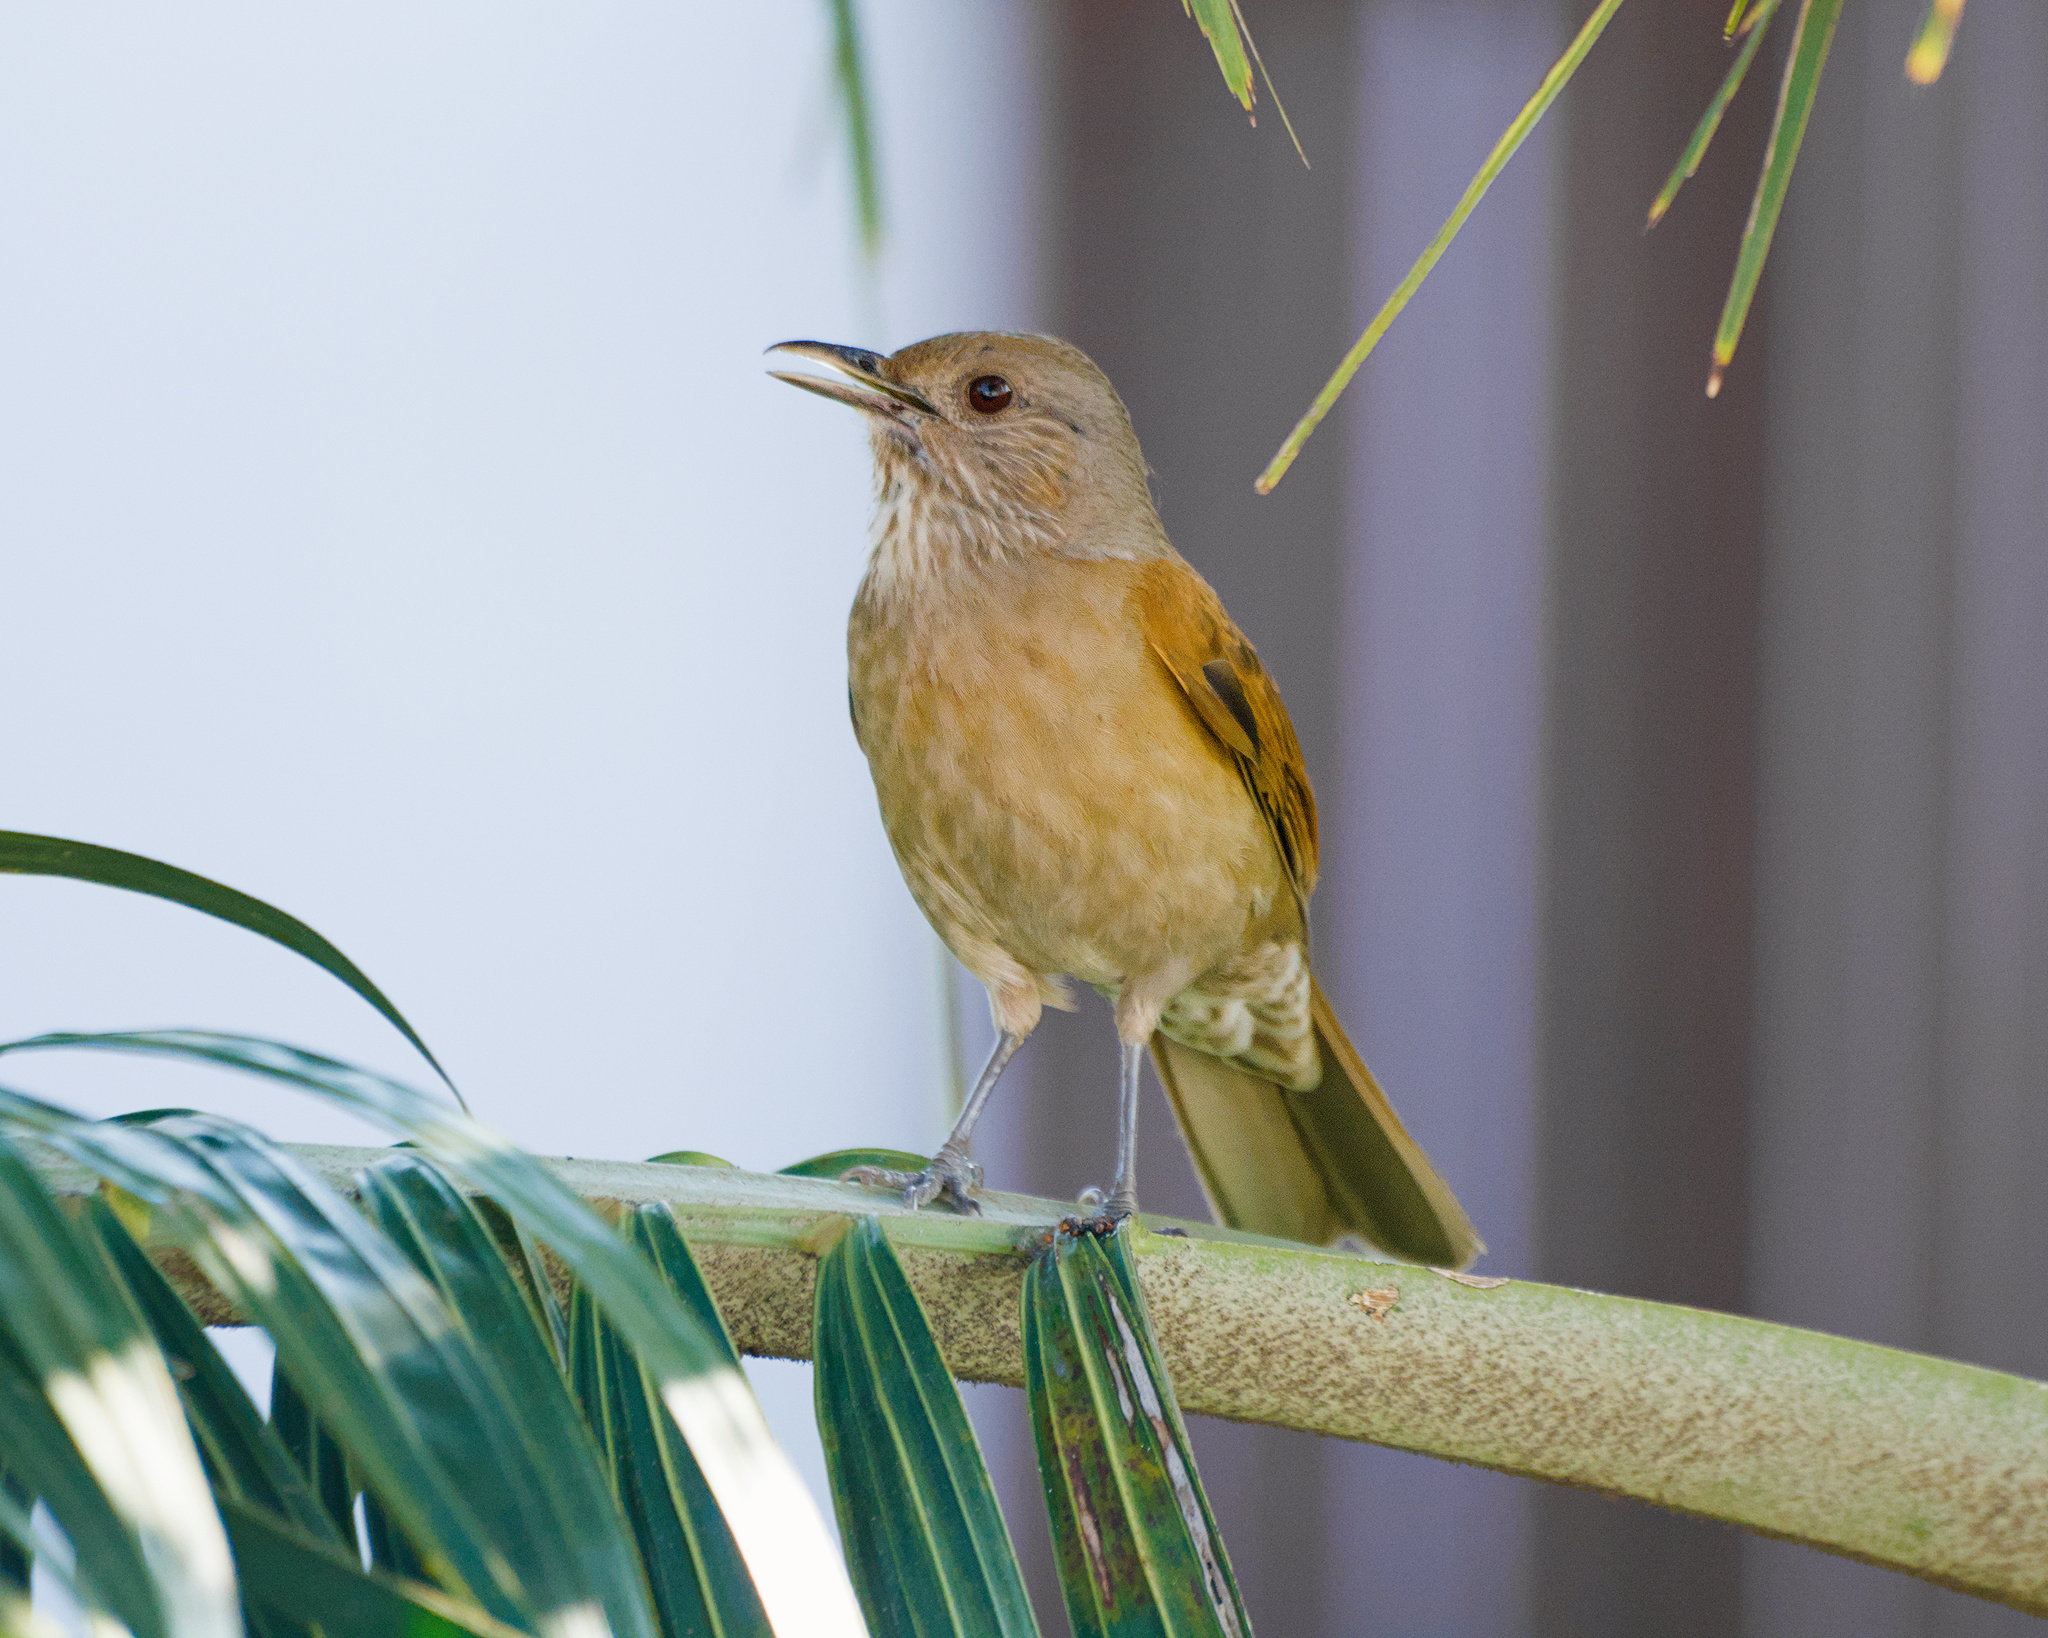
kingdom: Animalia
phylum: Chordata
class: Aves
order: Passeriformes
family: Turdidae
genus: Turdus
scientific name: Turdus leucomelas
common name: Pale-breasted thrush
